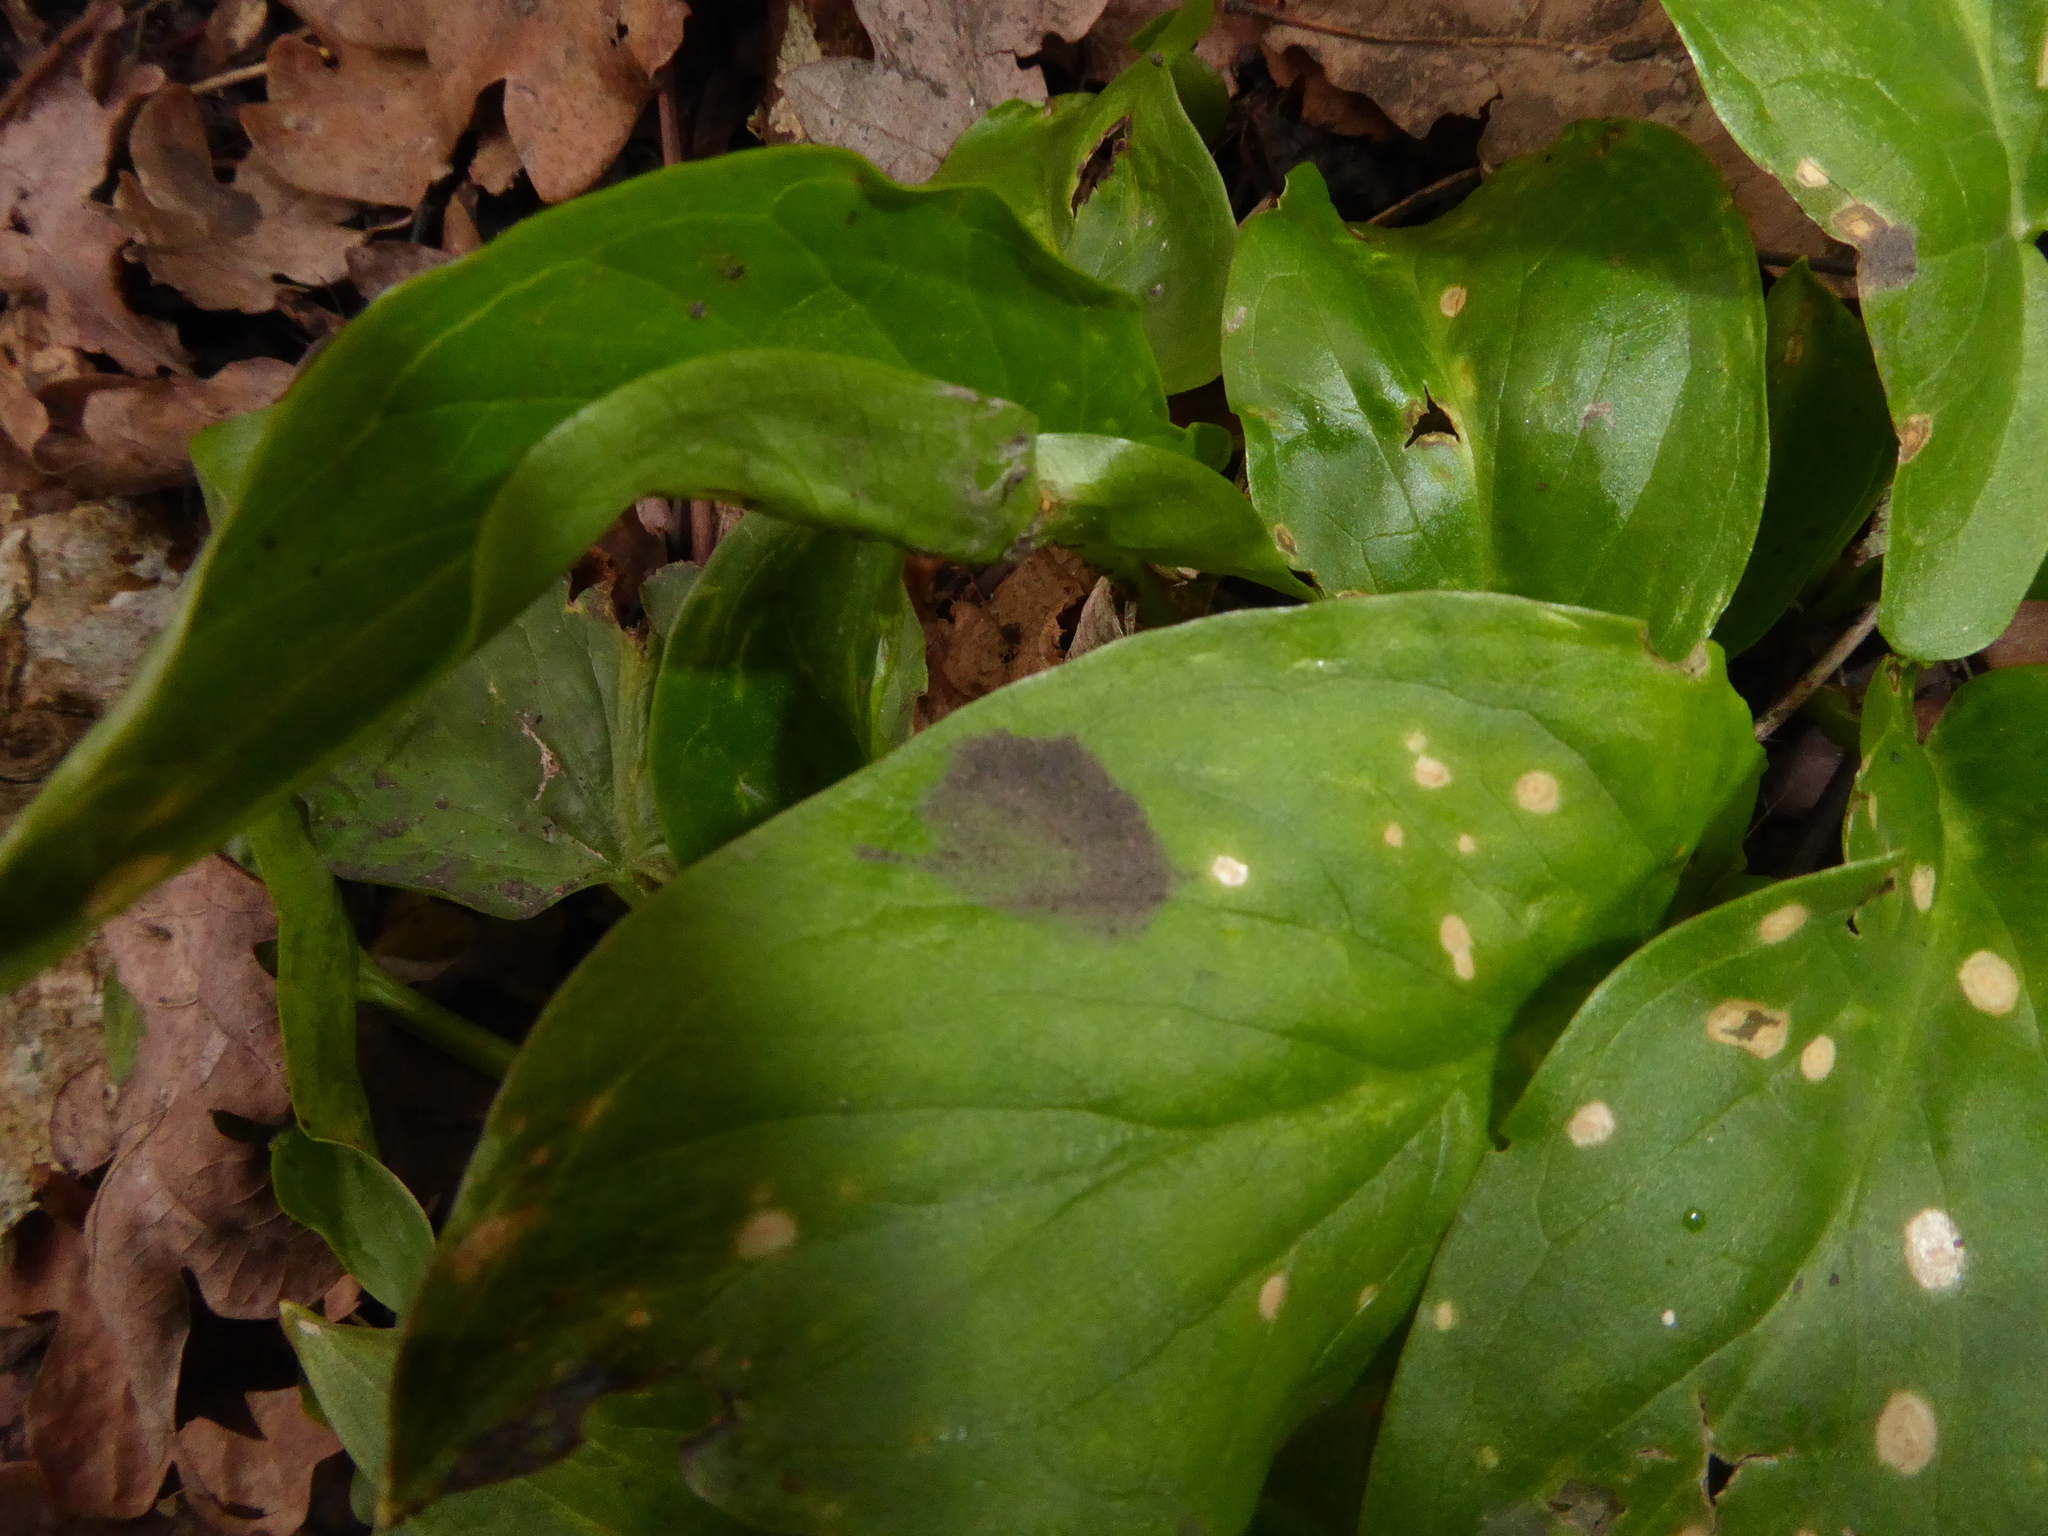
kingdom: Plantae
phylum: Tracheophyta
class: Liliopsida
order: Alismatales
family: Araceae
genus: Arum
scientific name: Arum maculatum
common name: Lords-and-ladies
